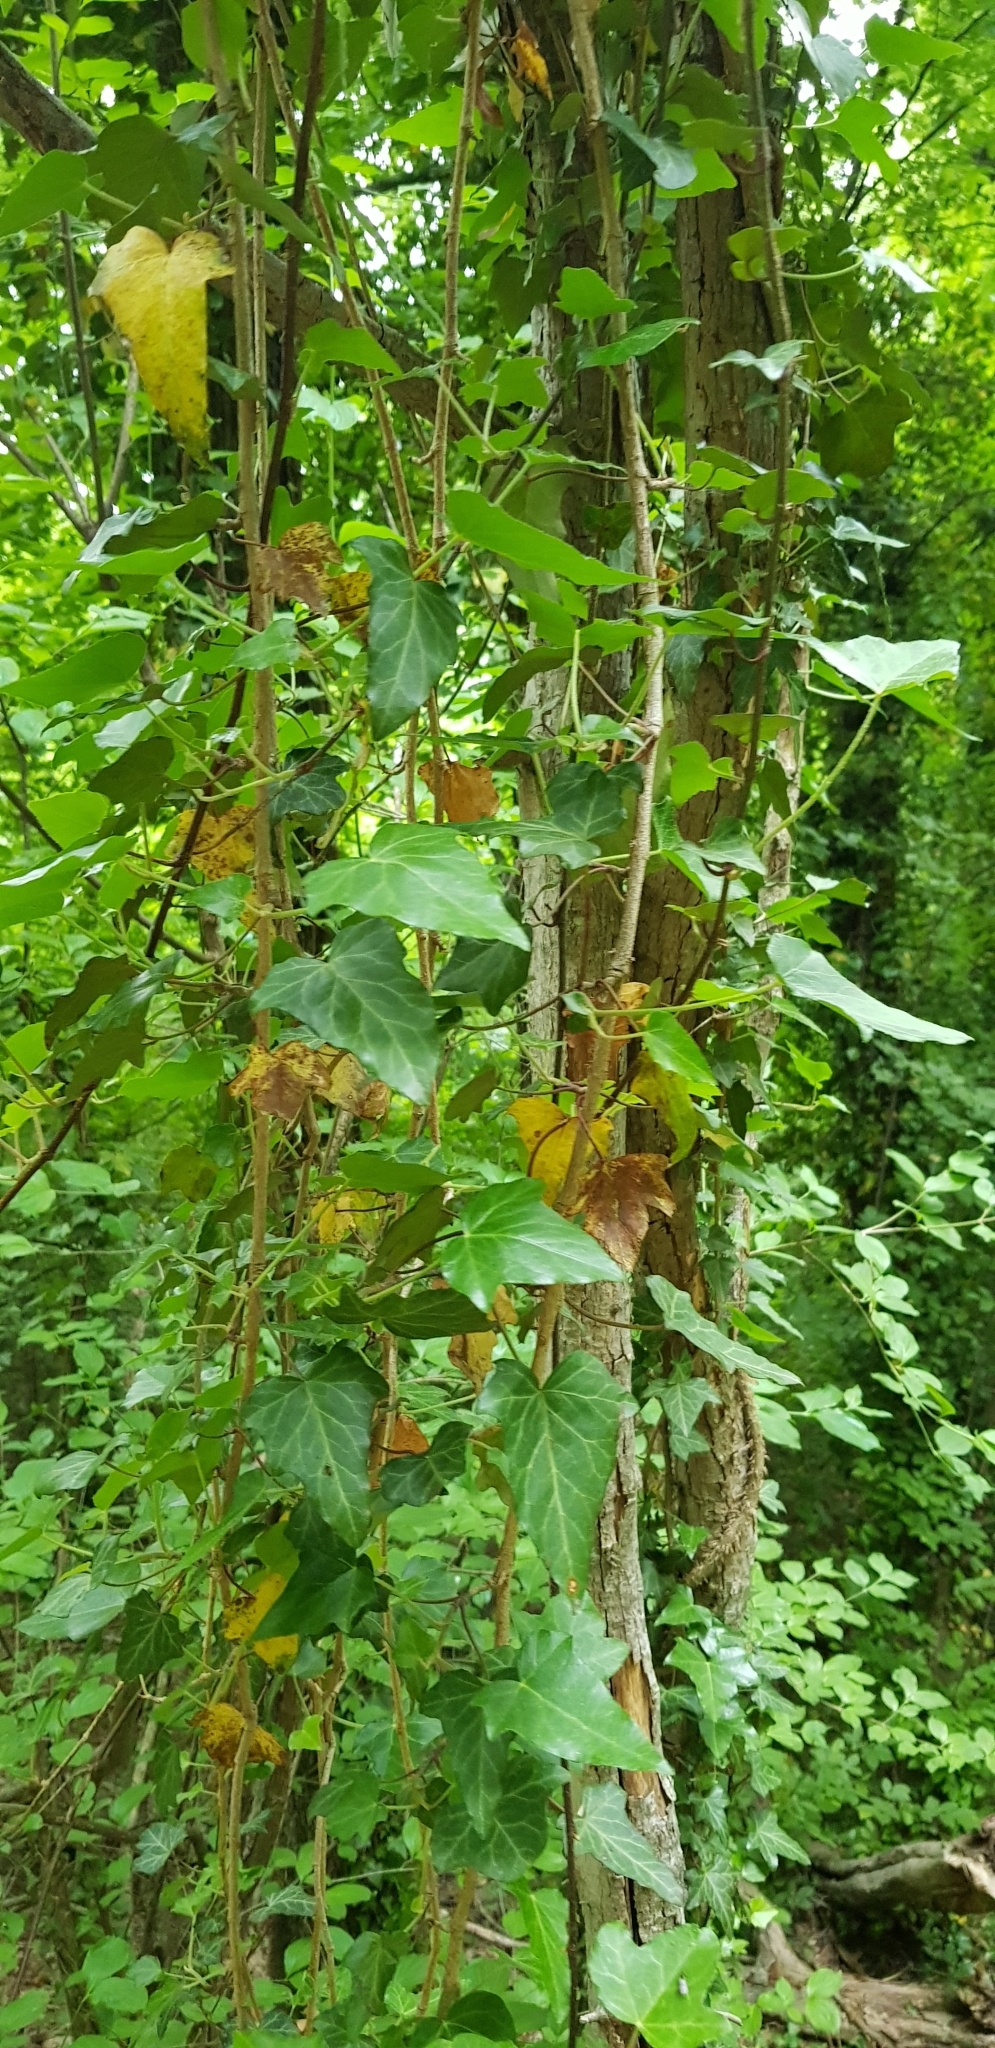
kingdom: Plantae
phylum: Tracheophyta
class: Magnoliopsida
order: Apiales
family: Araliaceae
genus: Hedera
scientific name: Hedera helix
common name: Ivy
